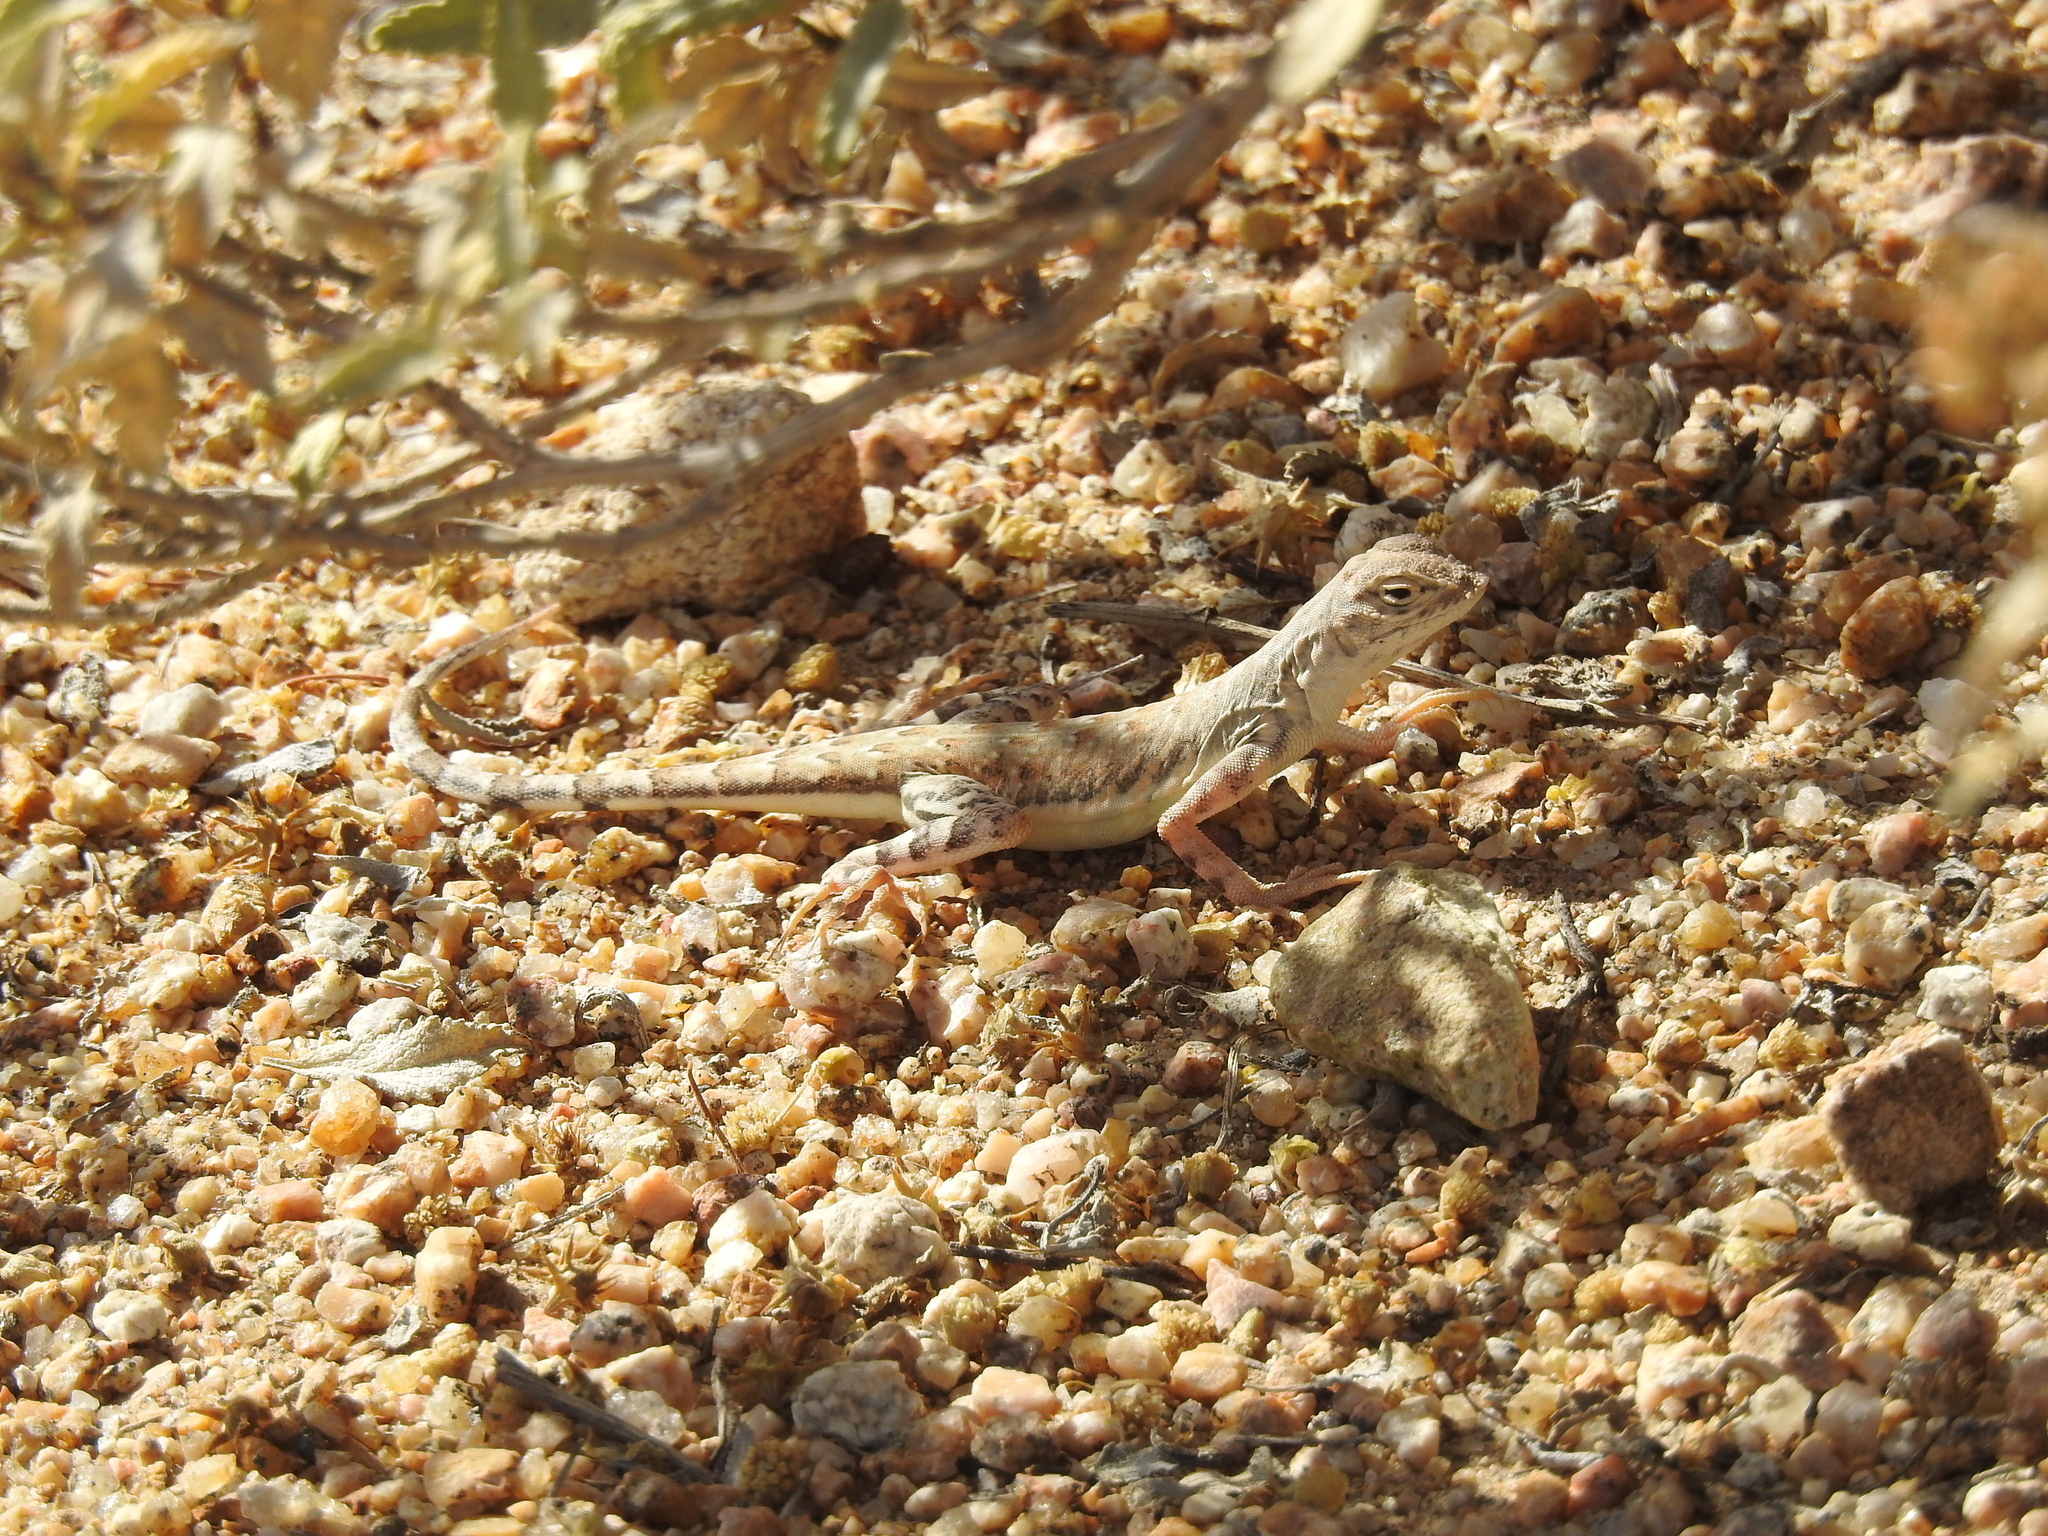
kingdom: Animalia
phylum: Chordata
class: Squamata
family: Phrynosomatidae
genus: Callisaurus
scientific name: Callisaurus draconoides
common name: Zebra-tailed lizard
